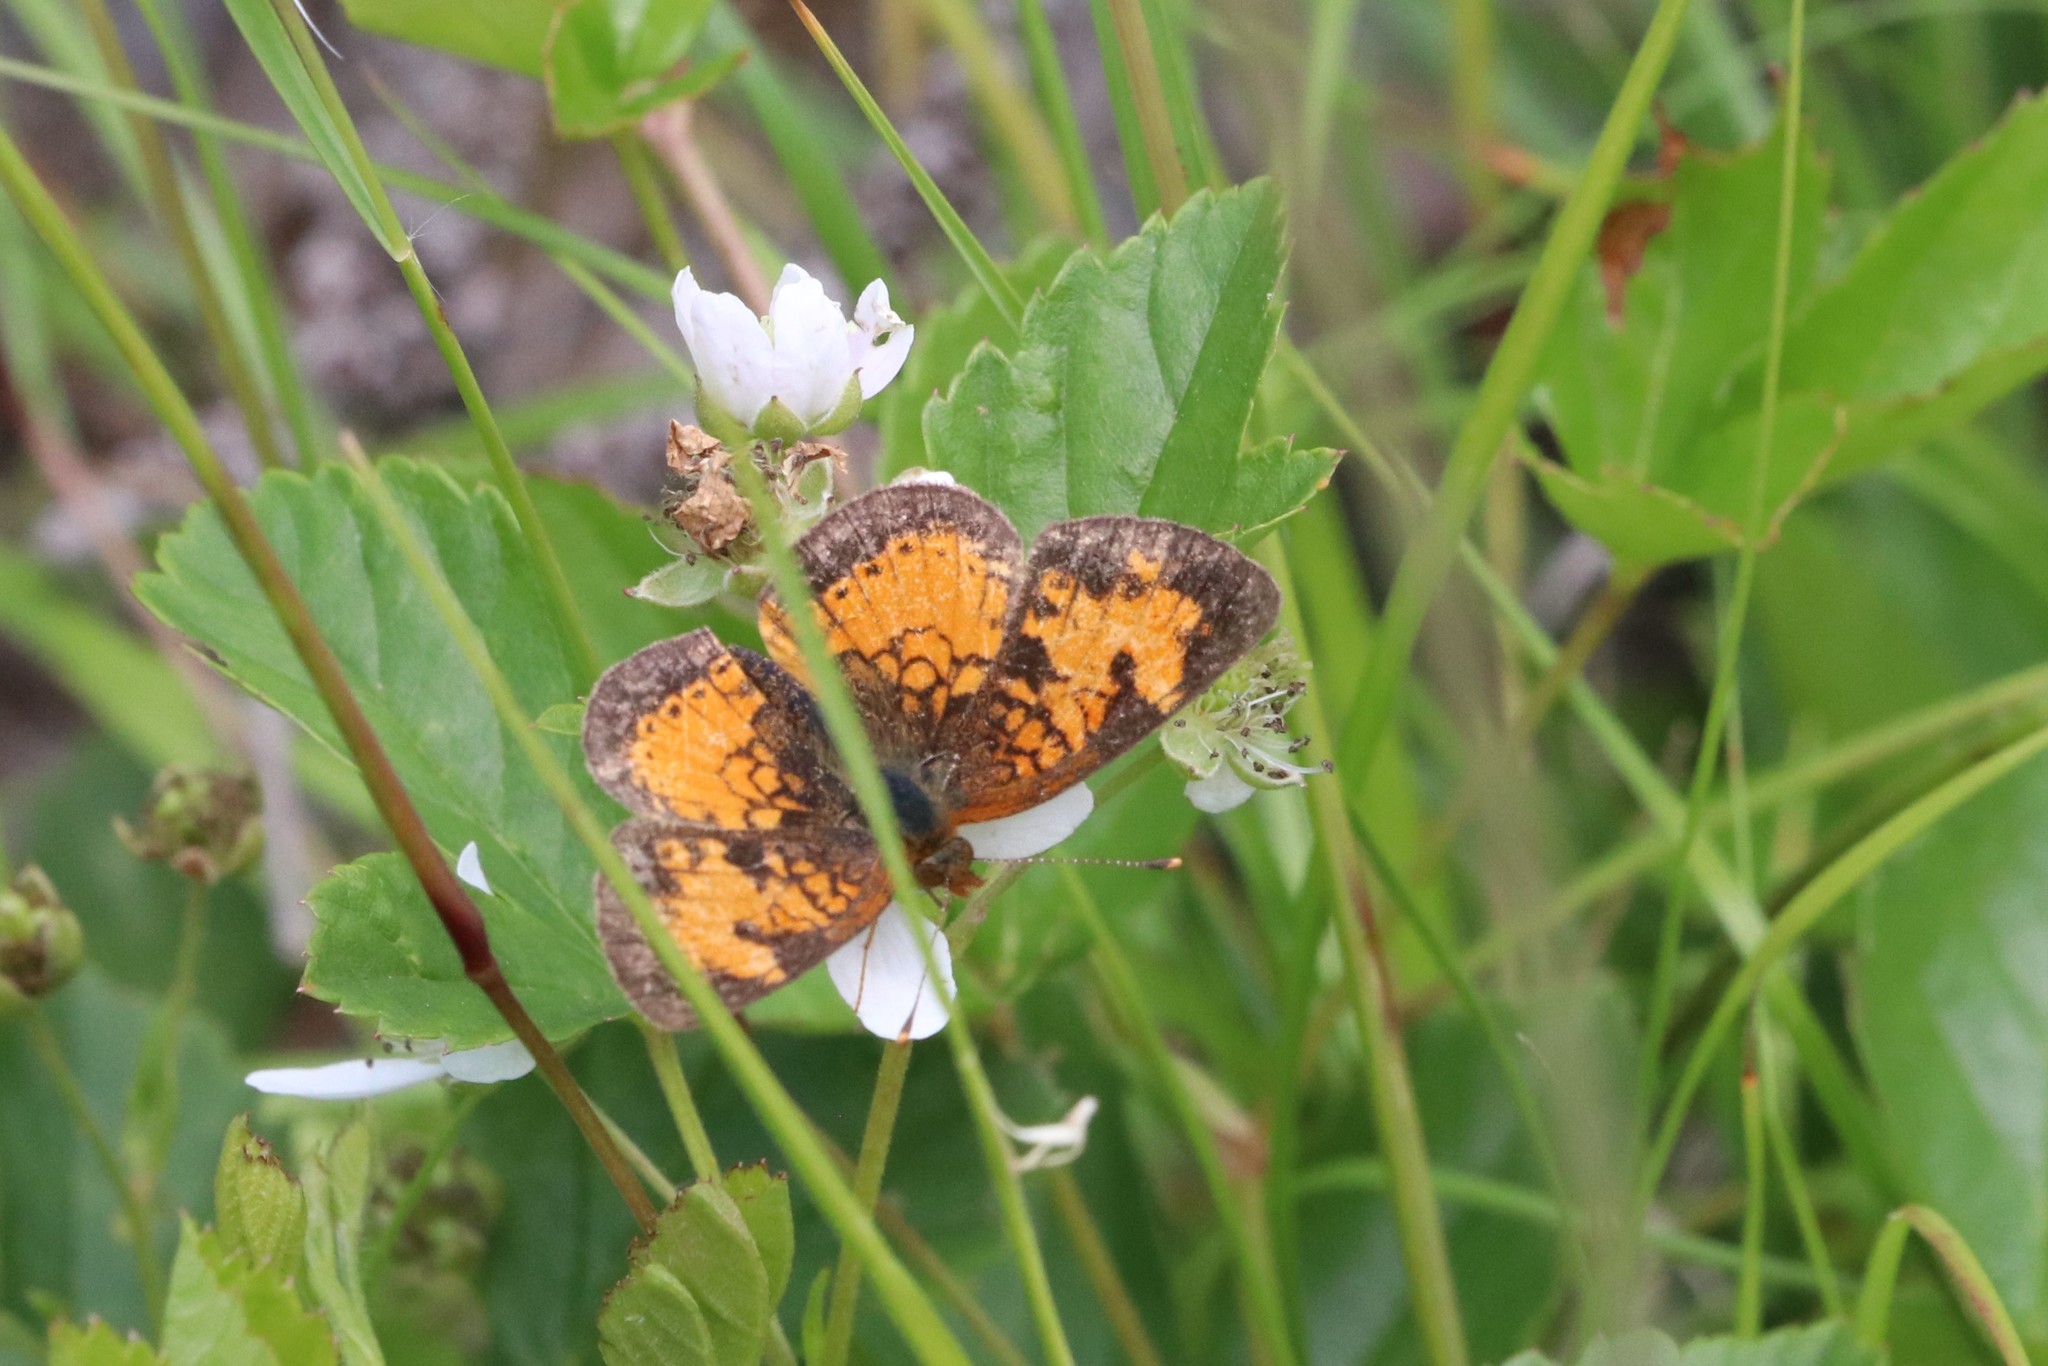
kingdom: Animalia
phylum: Arthropoda
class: Insecta
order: Lepidoptera
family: Nymphalidae
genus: Phyciodes
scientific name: Phyciodes tharos
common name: Pearl crescent
